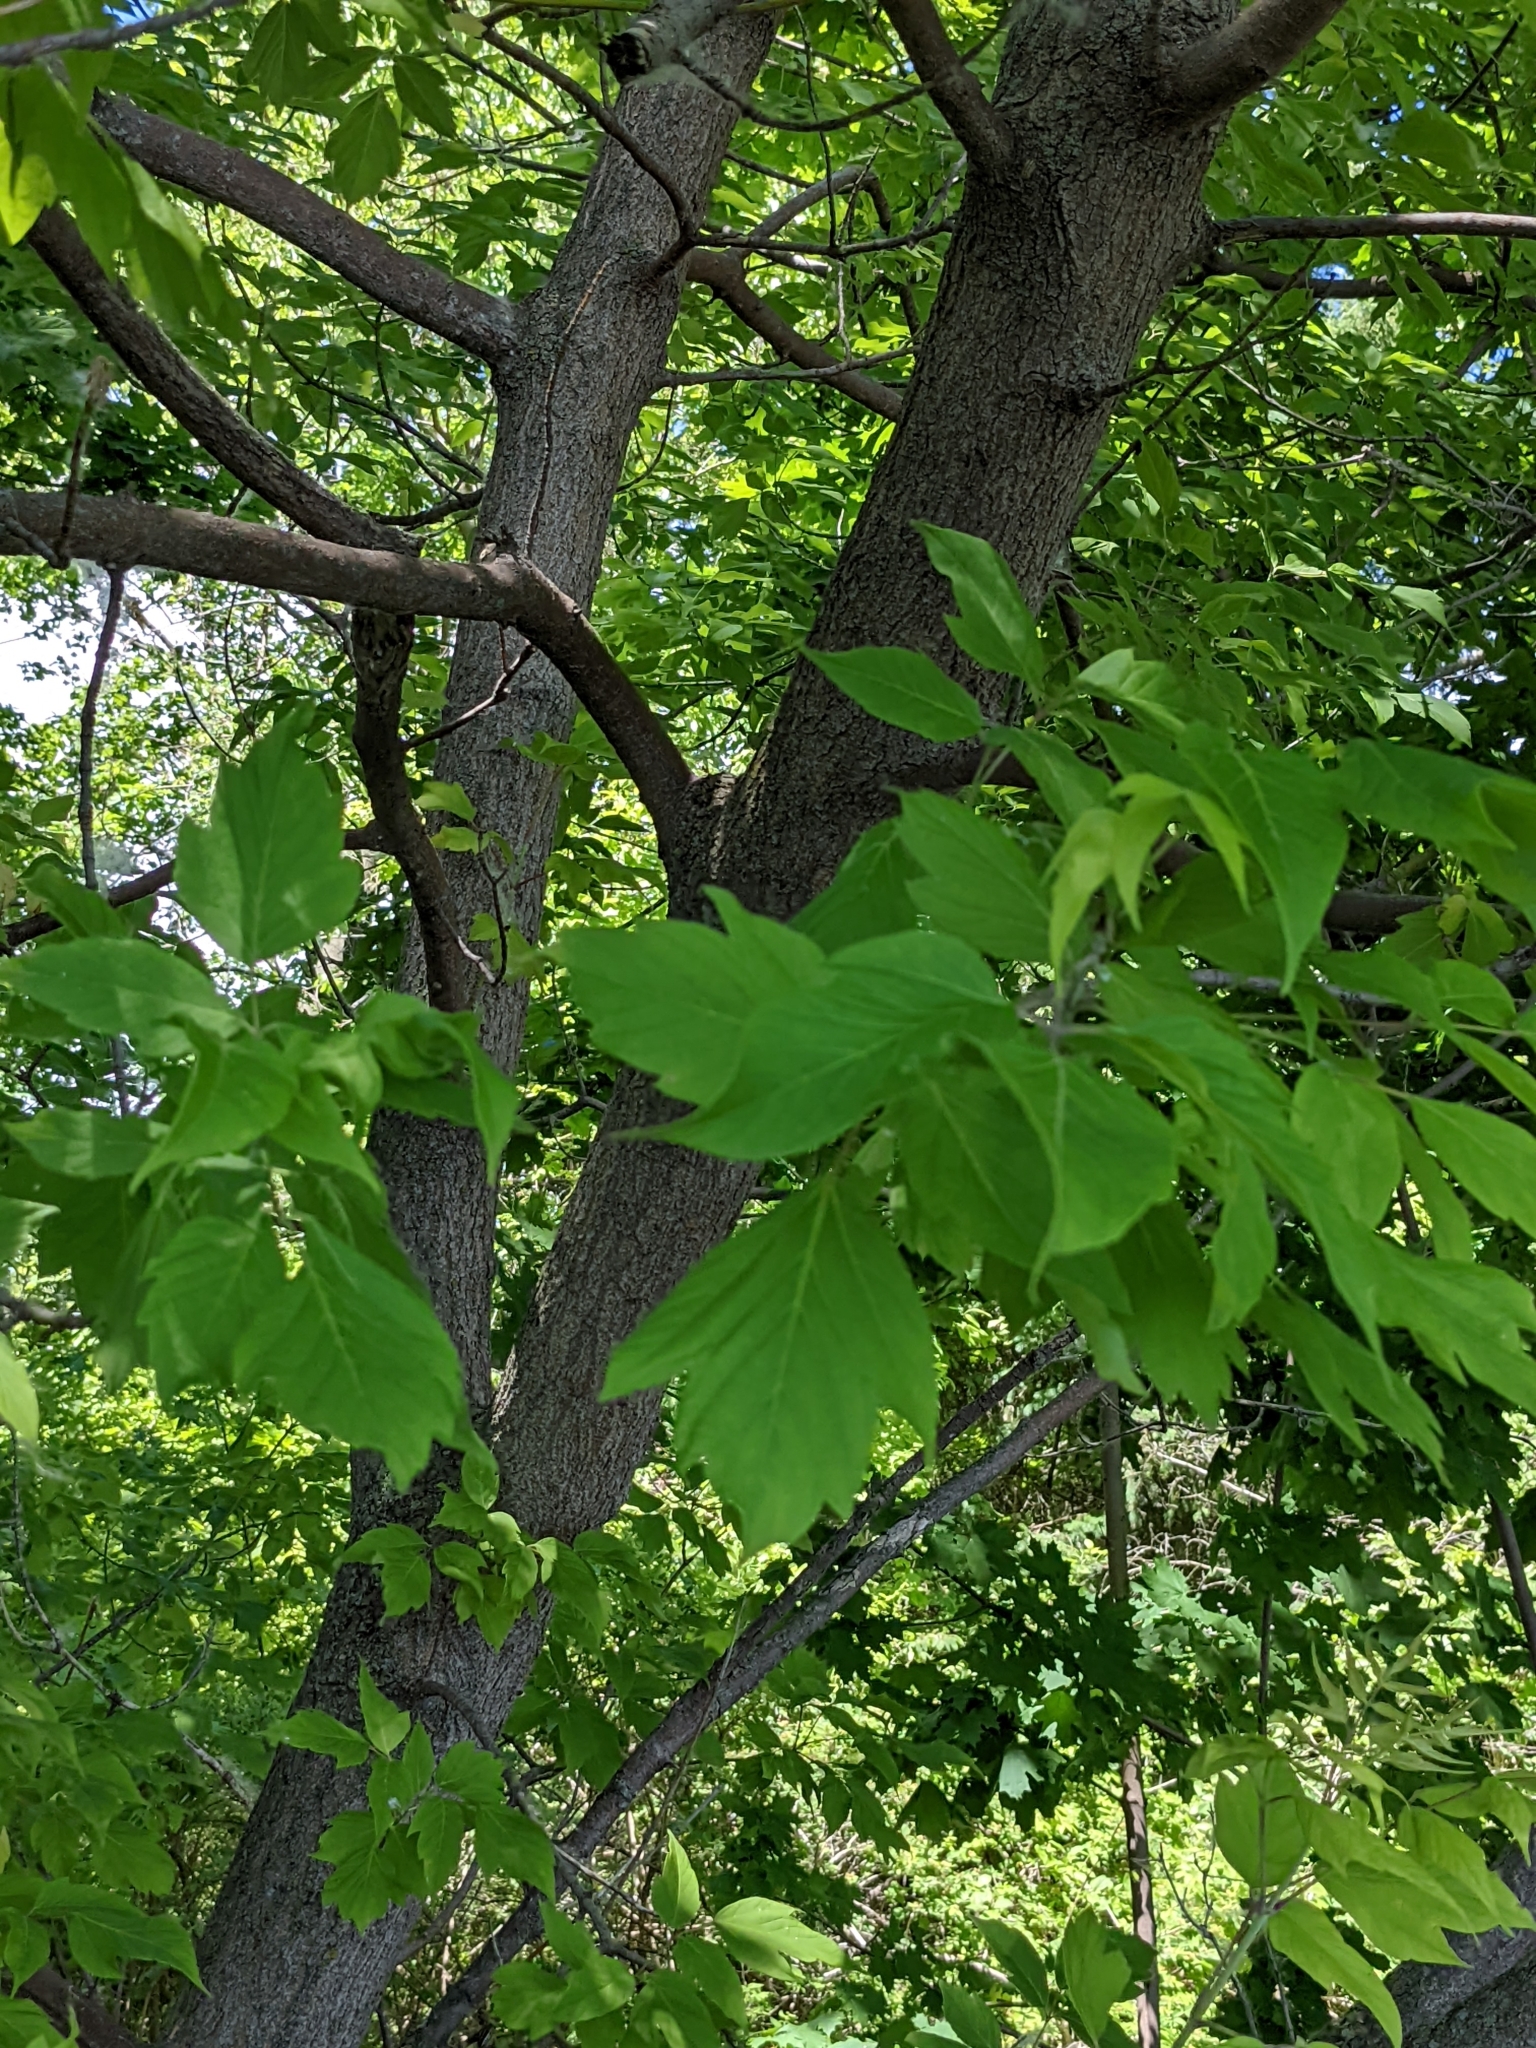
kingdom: Plantae
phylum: Tracheophyta
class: Magnoliopsida
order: Sapindales
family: Sapindaceae
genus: Acer
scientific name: Acer negundo
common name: Ashleaf maple
